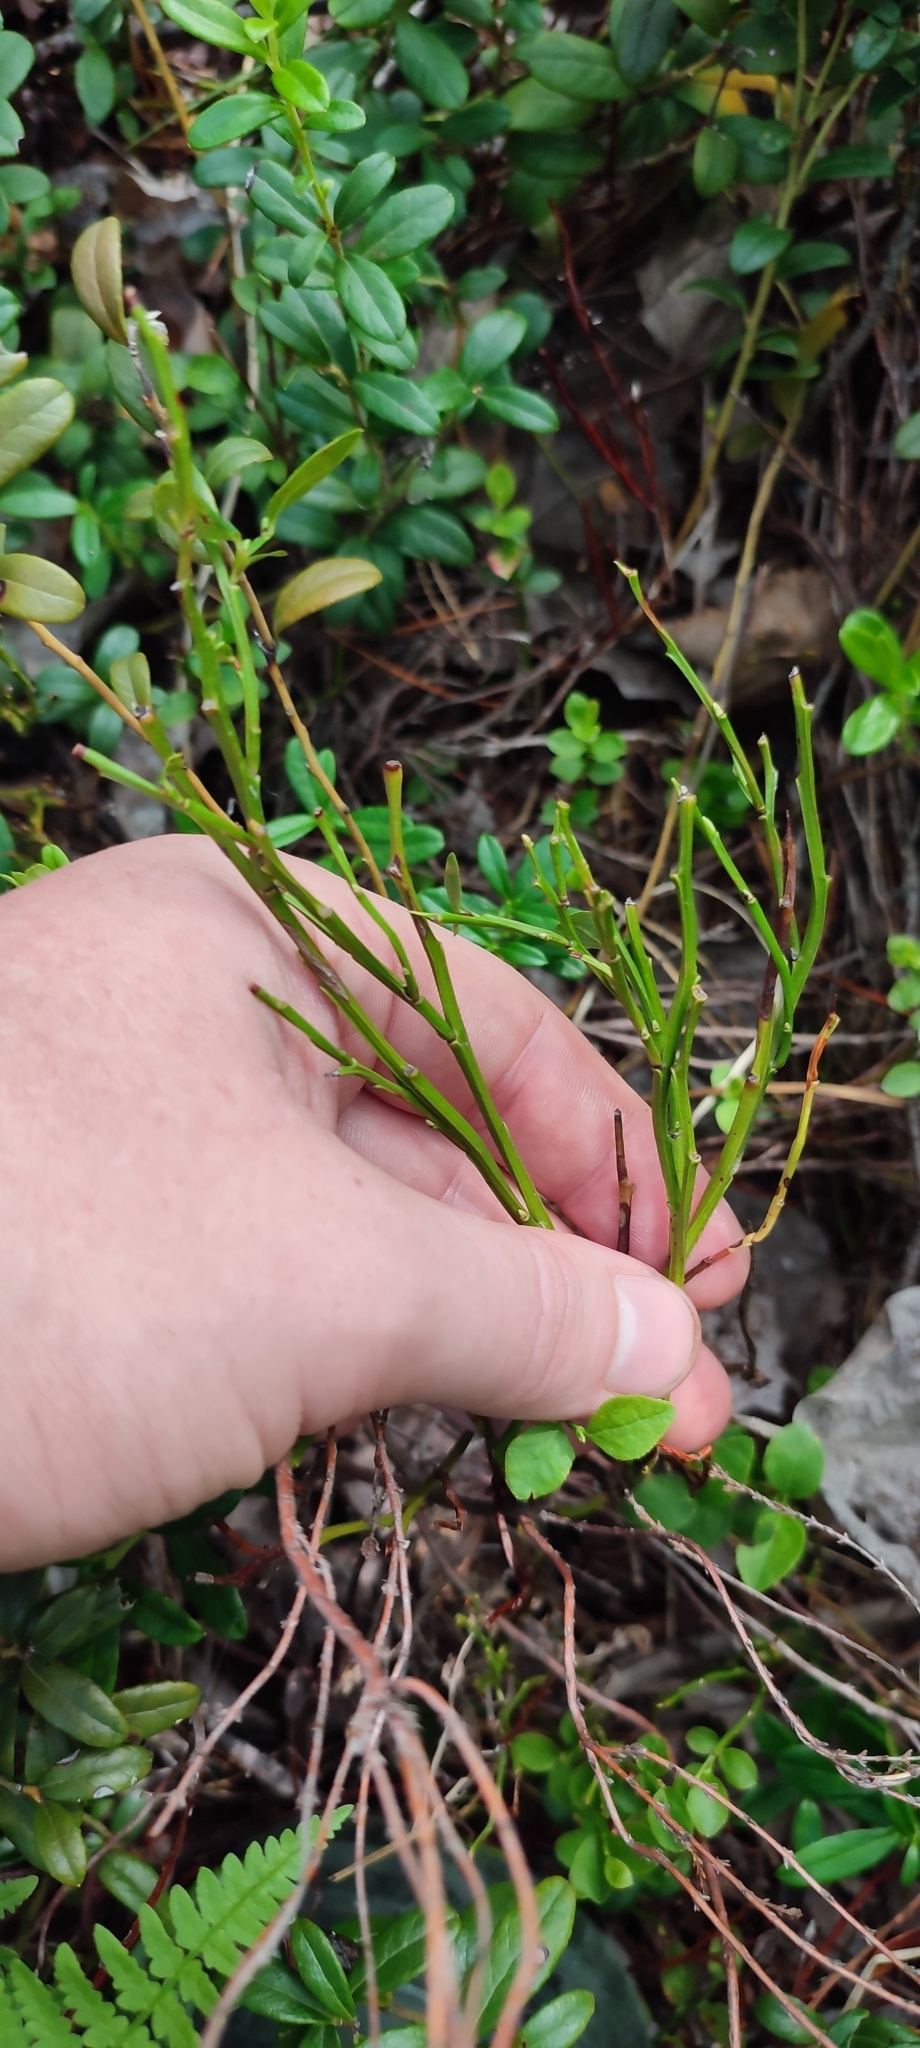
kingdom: Plantae
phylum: Tracheophyta
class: Magnoliopsida
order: Ericales
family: Ericaceae
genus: Vaccinium
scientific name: Vaccinium myrtillus
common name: Bilberry
